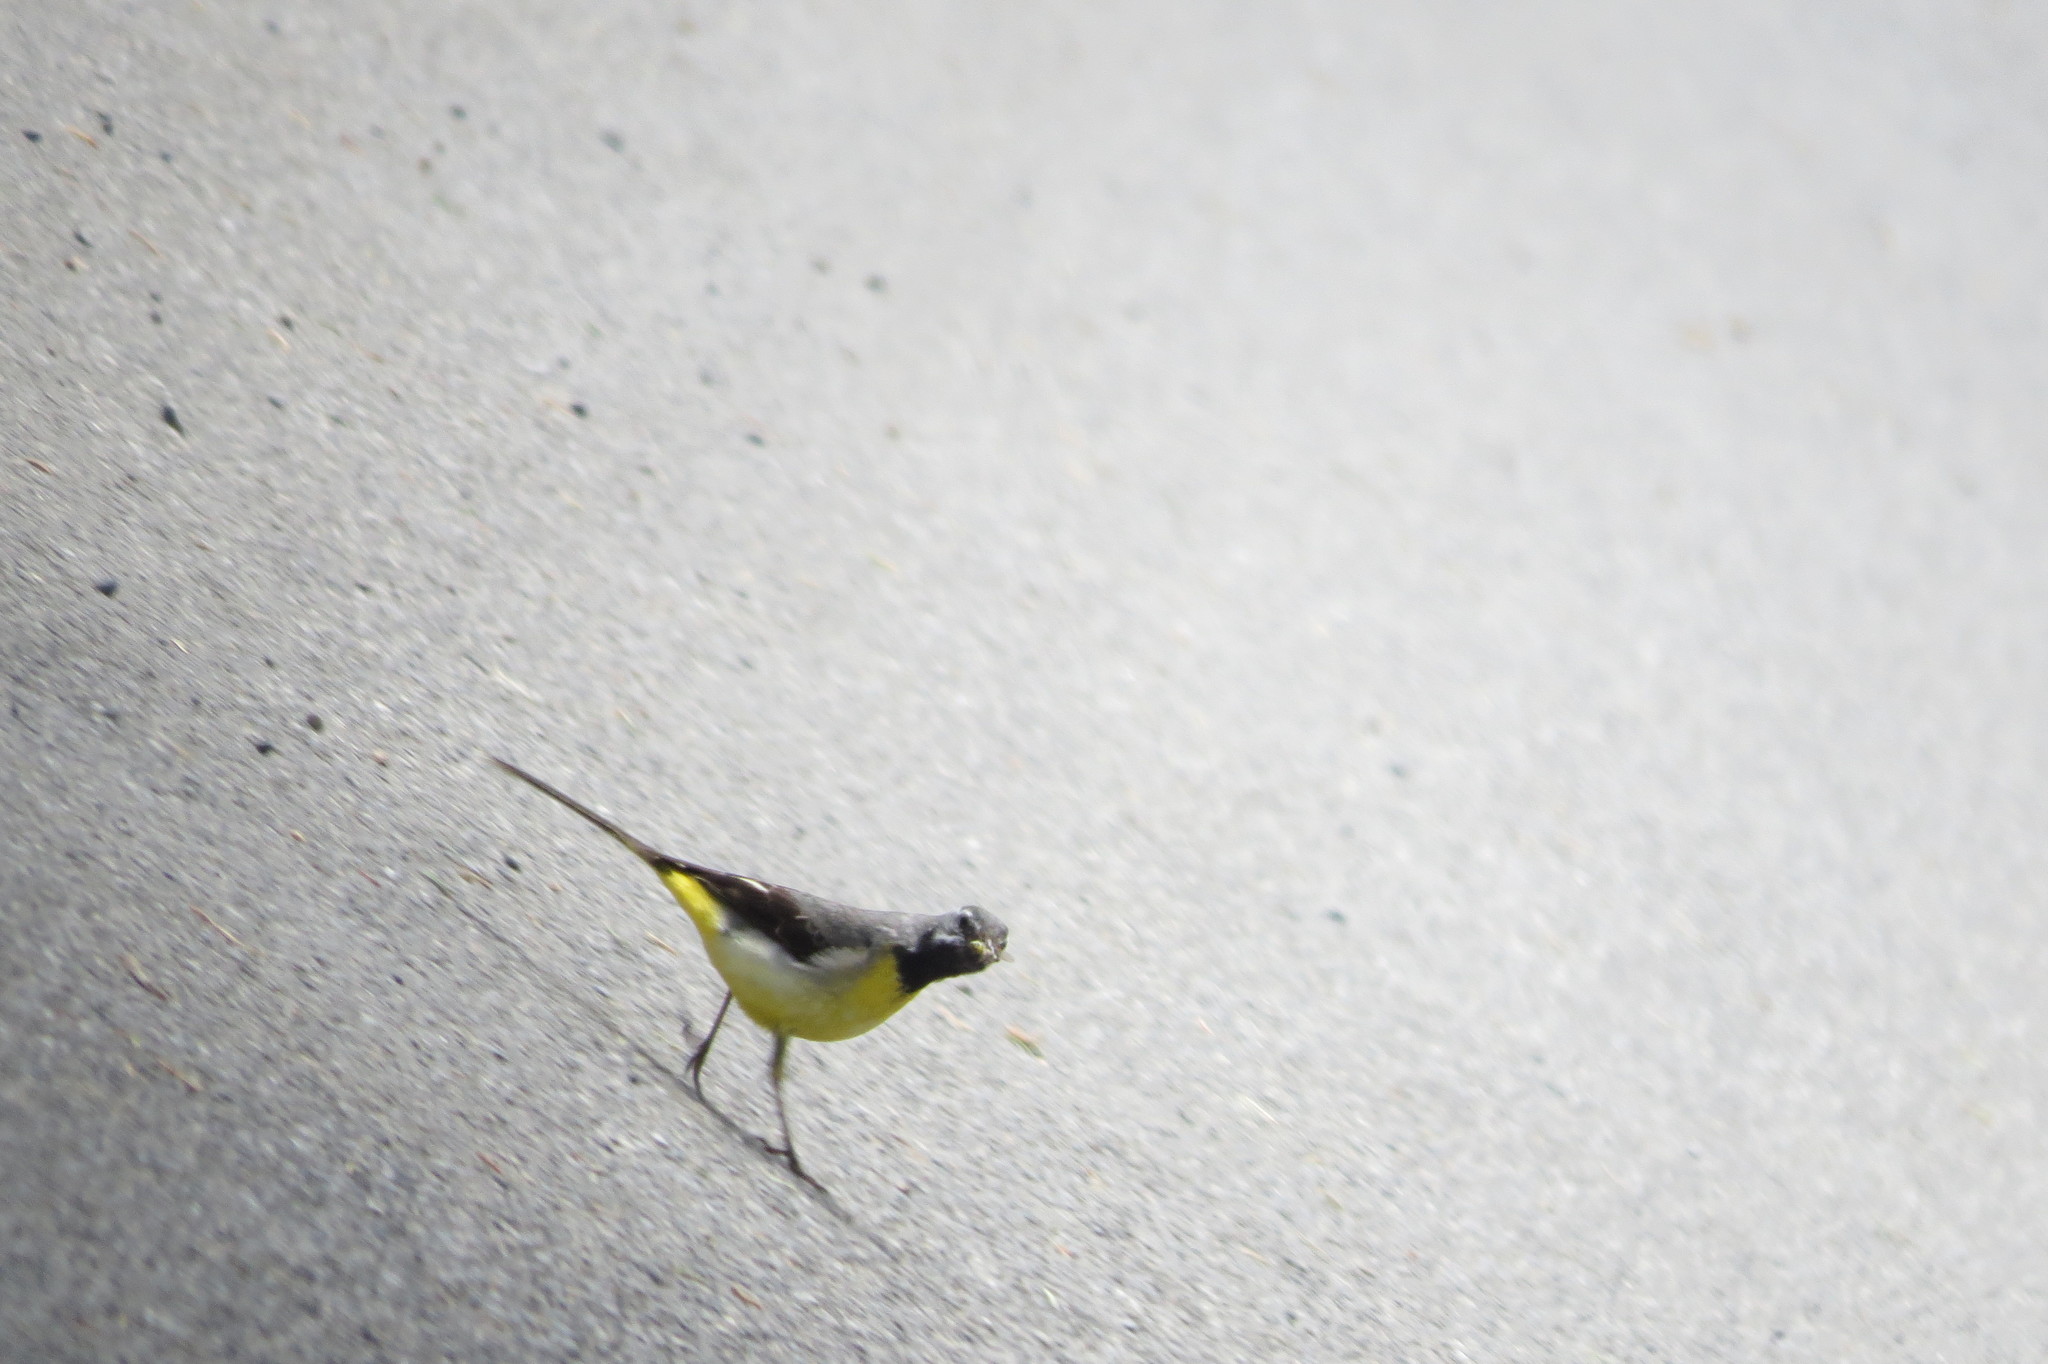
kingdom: Animalia
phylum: Chordata
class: Aves
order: Passeriformes
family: Motacillidae
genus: Motacilla
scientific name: Motacilla cinerea
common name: Grey wagtail
